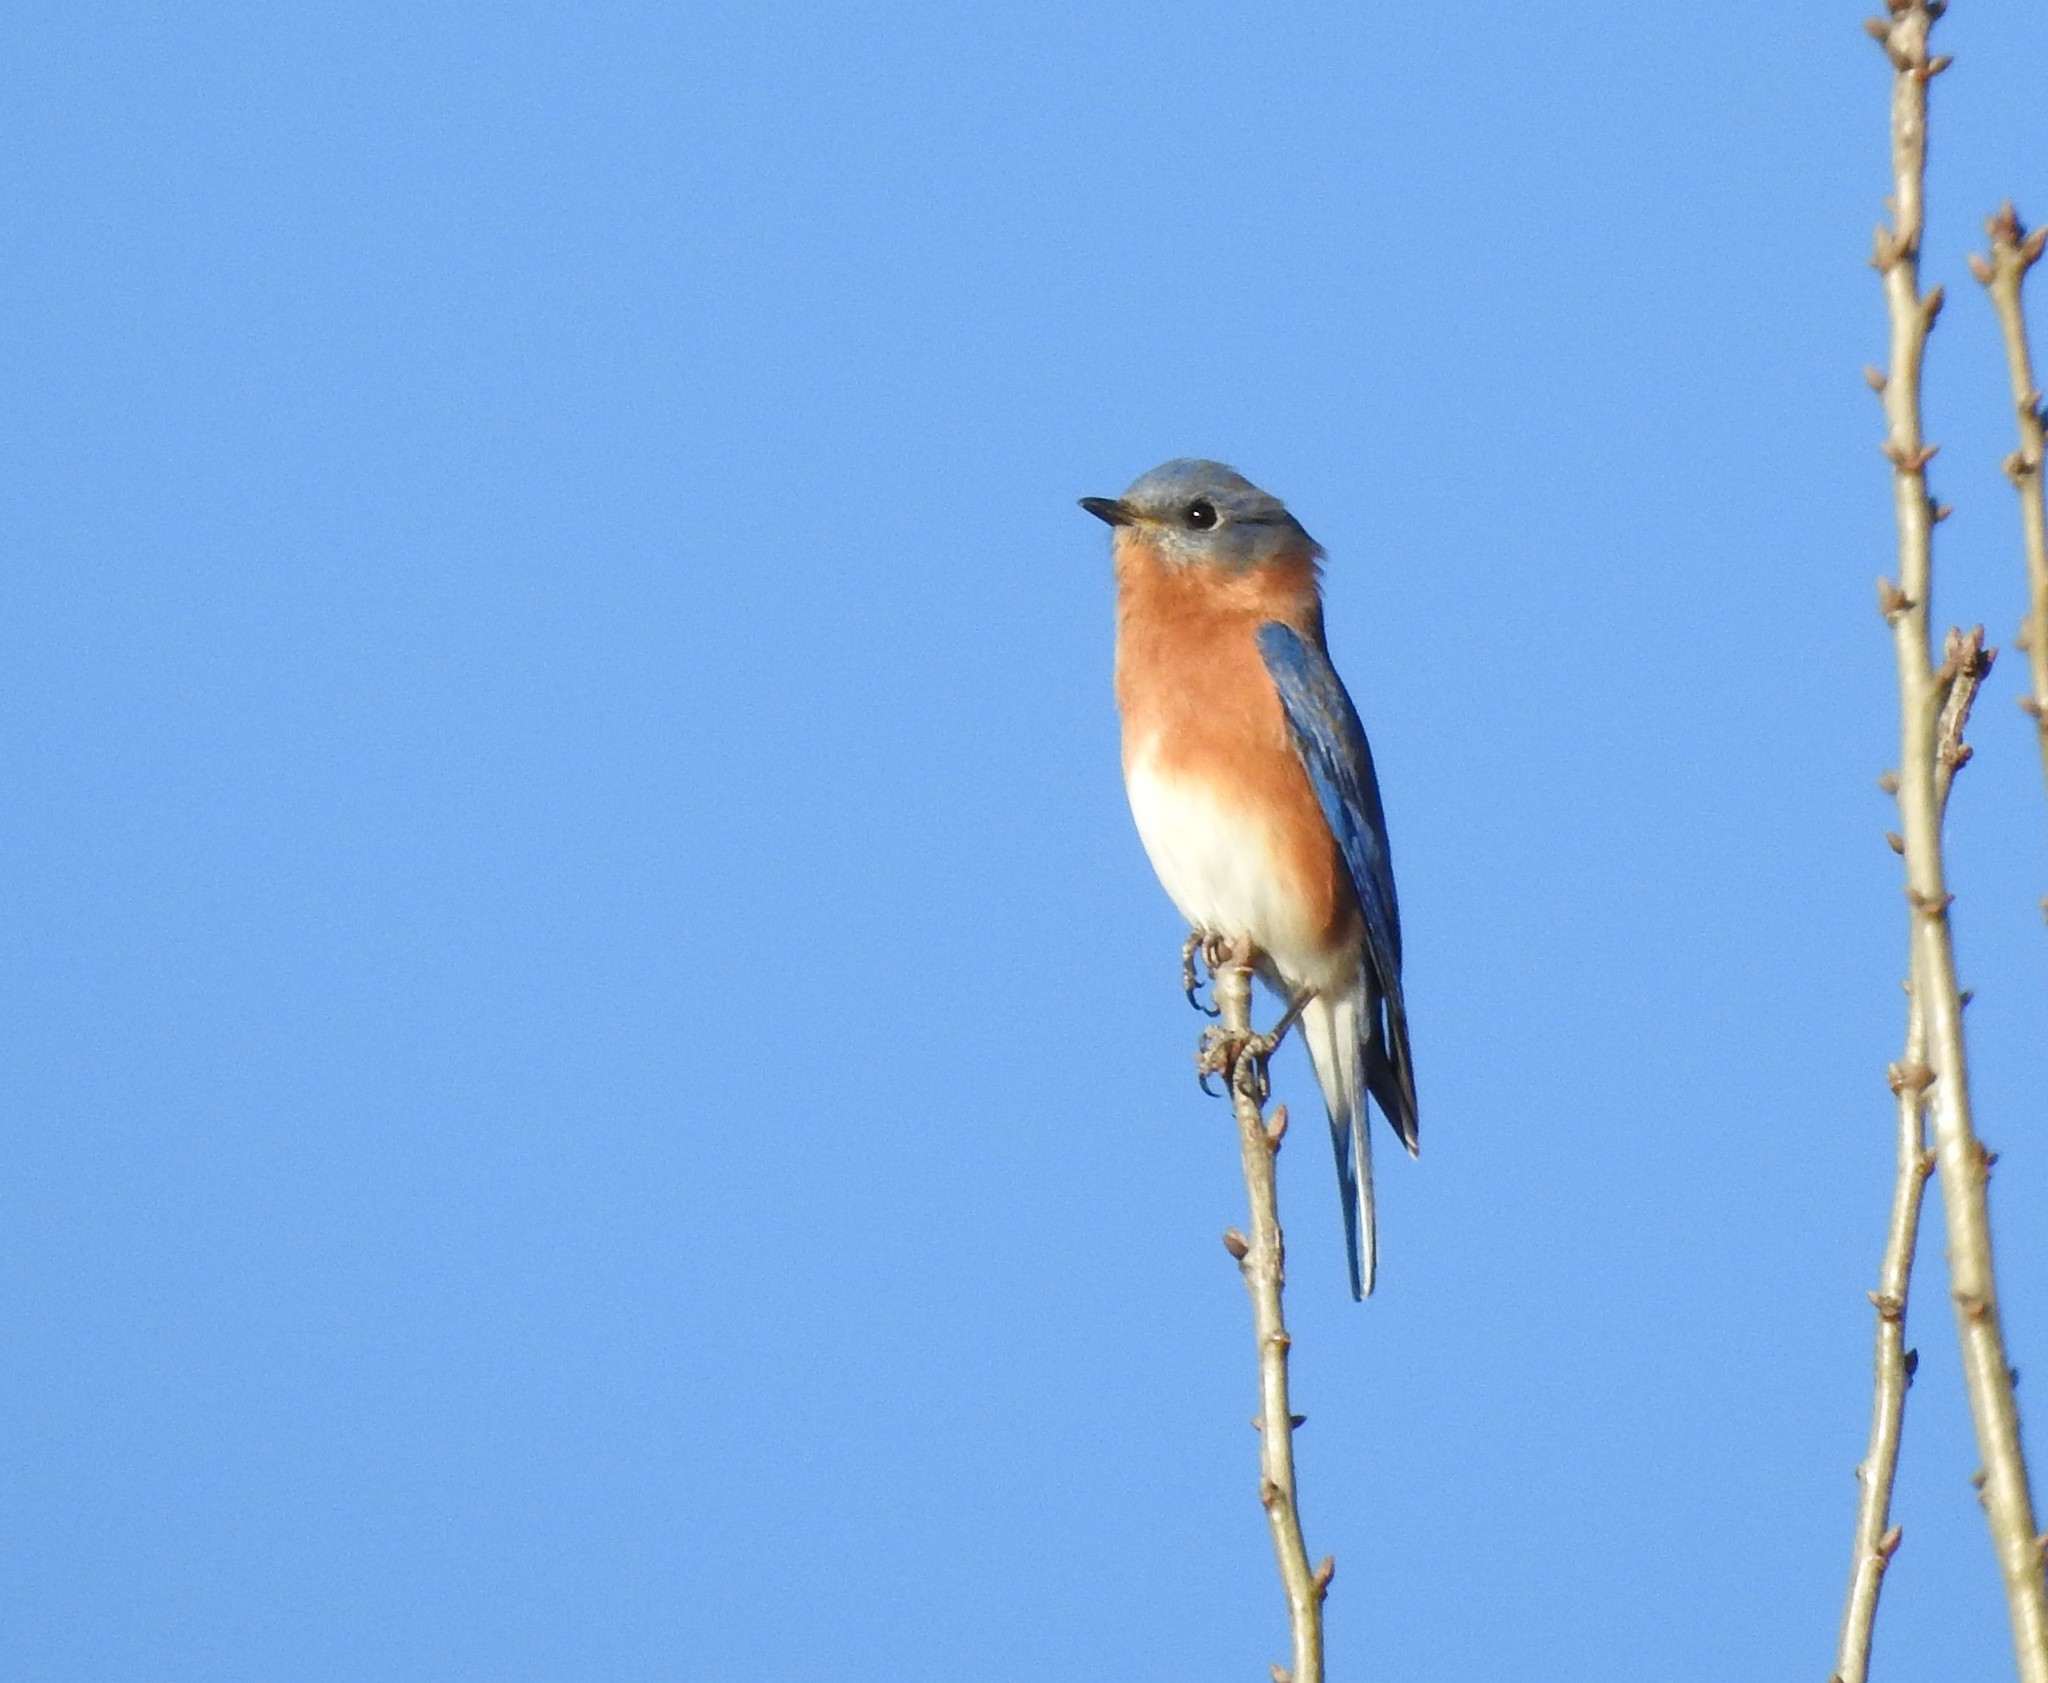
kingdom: Animalia
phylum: Chordata
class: Aves
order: Passeriformes
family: Turdidae
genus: Sialia
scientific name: Sialia sialis
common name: Eastern bluebird
